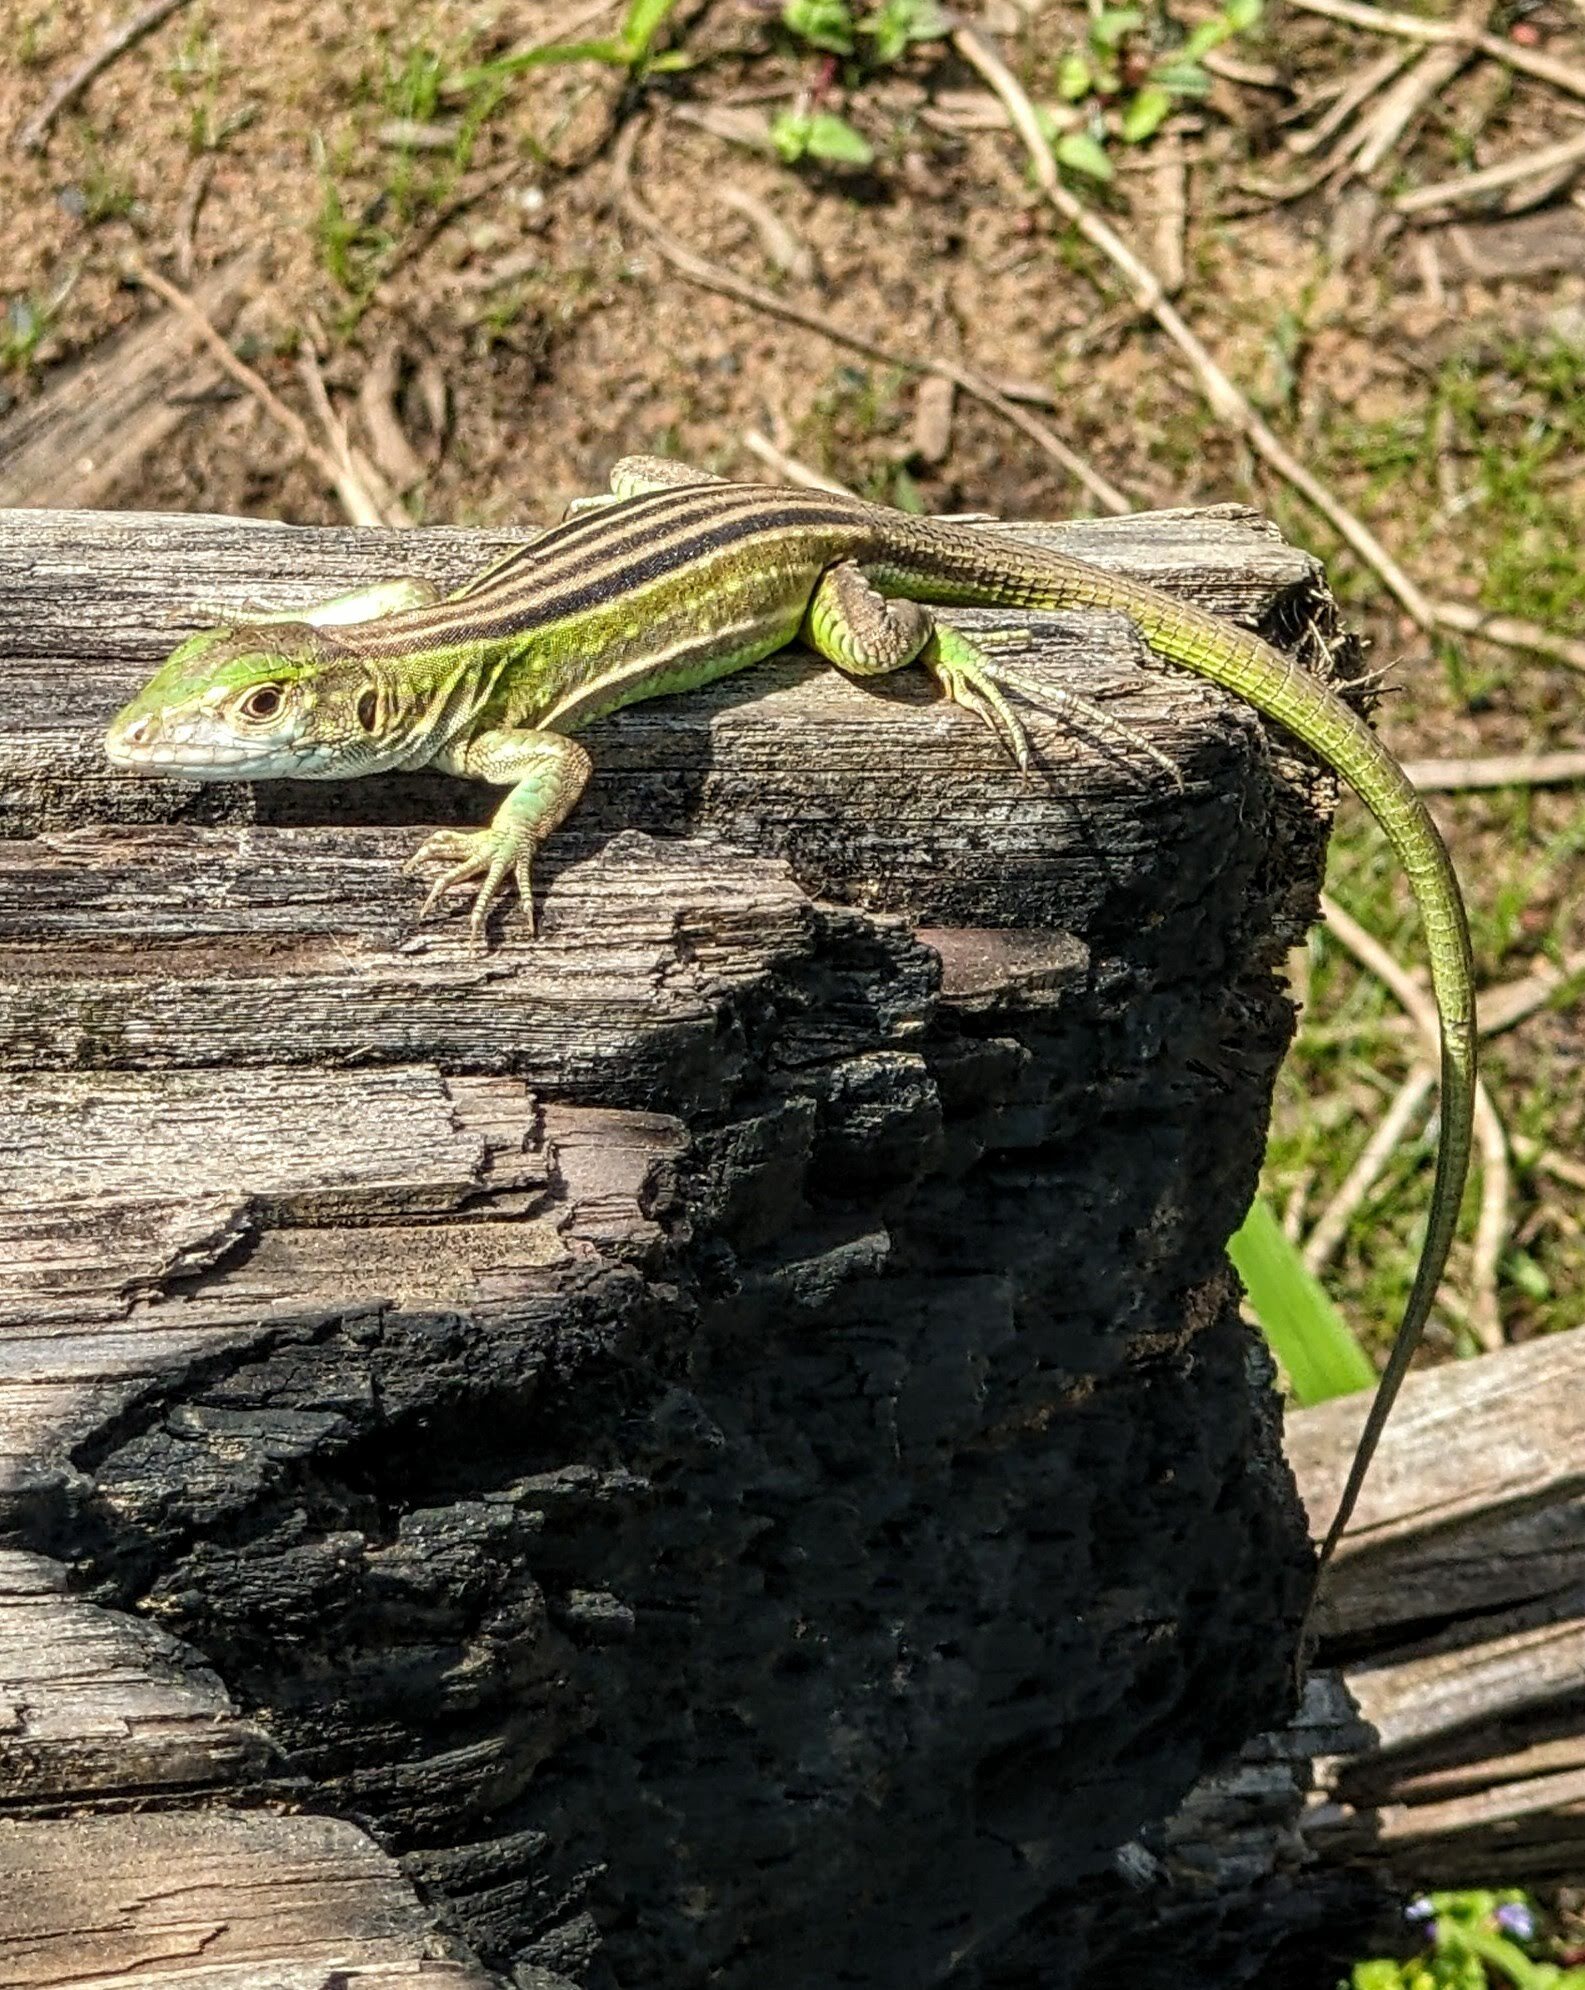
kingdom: Animalia
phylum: Chordata
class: Squamata
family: Teiidae
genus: Cnemidophorus
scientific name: Cnemidophorus lemniscatus
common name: Rainbow whiptail
